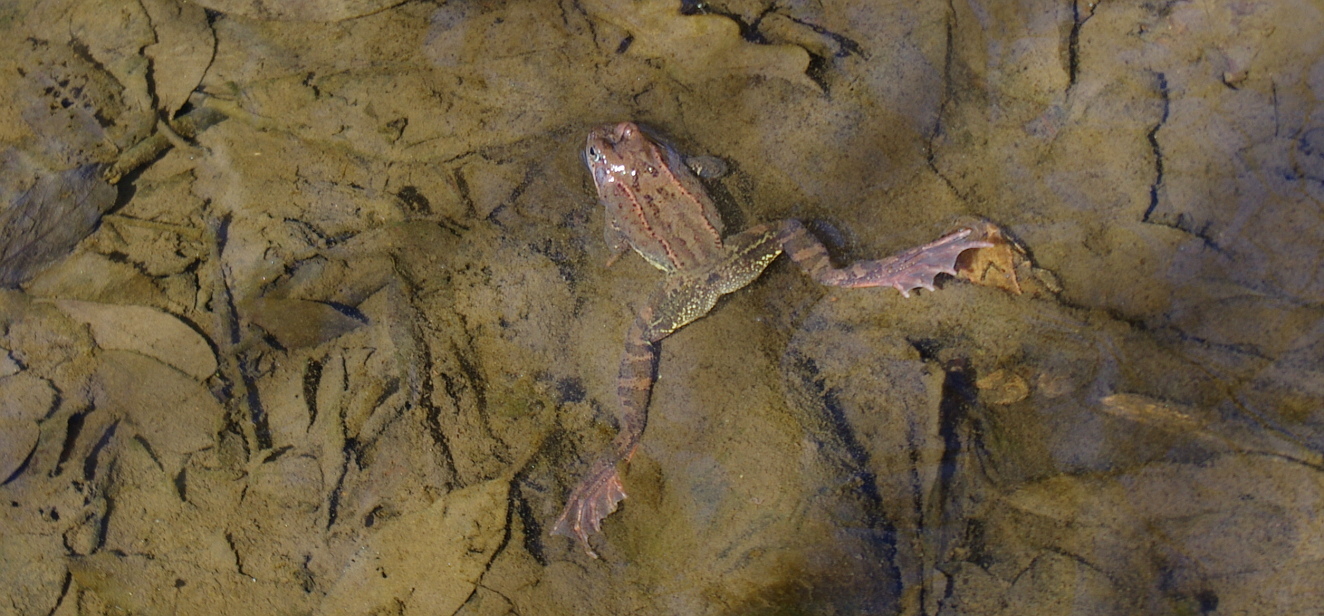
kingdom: Animalia
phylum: Chordata
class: Amphibia
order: Anura
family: Ranidae
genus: Rana
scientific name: Rana temporaria
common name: Common frog
